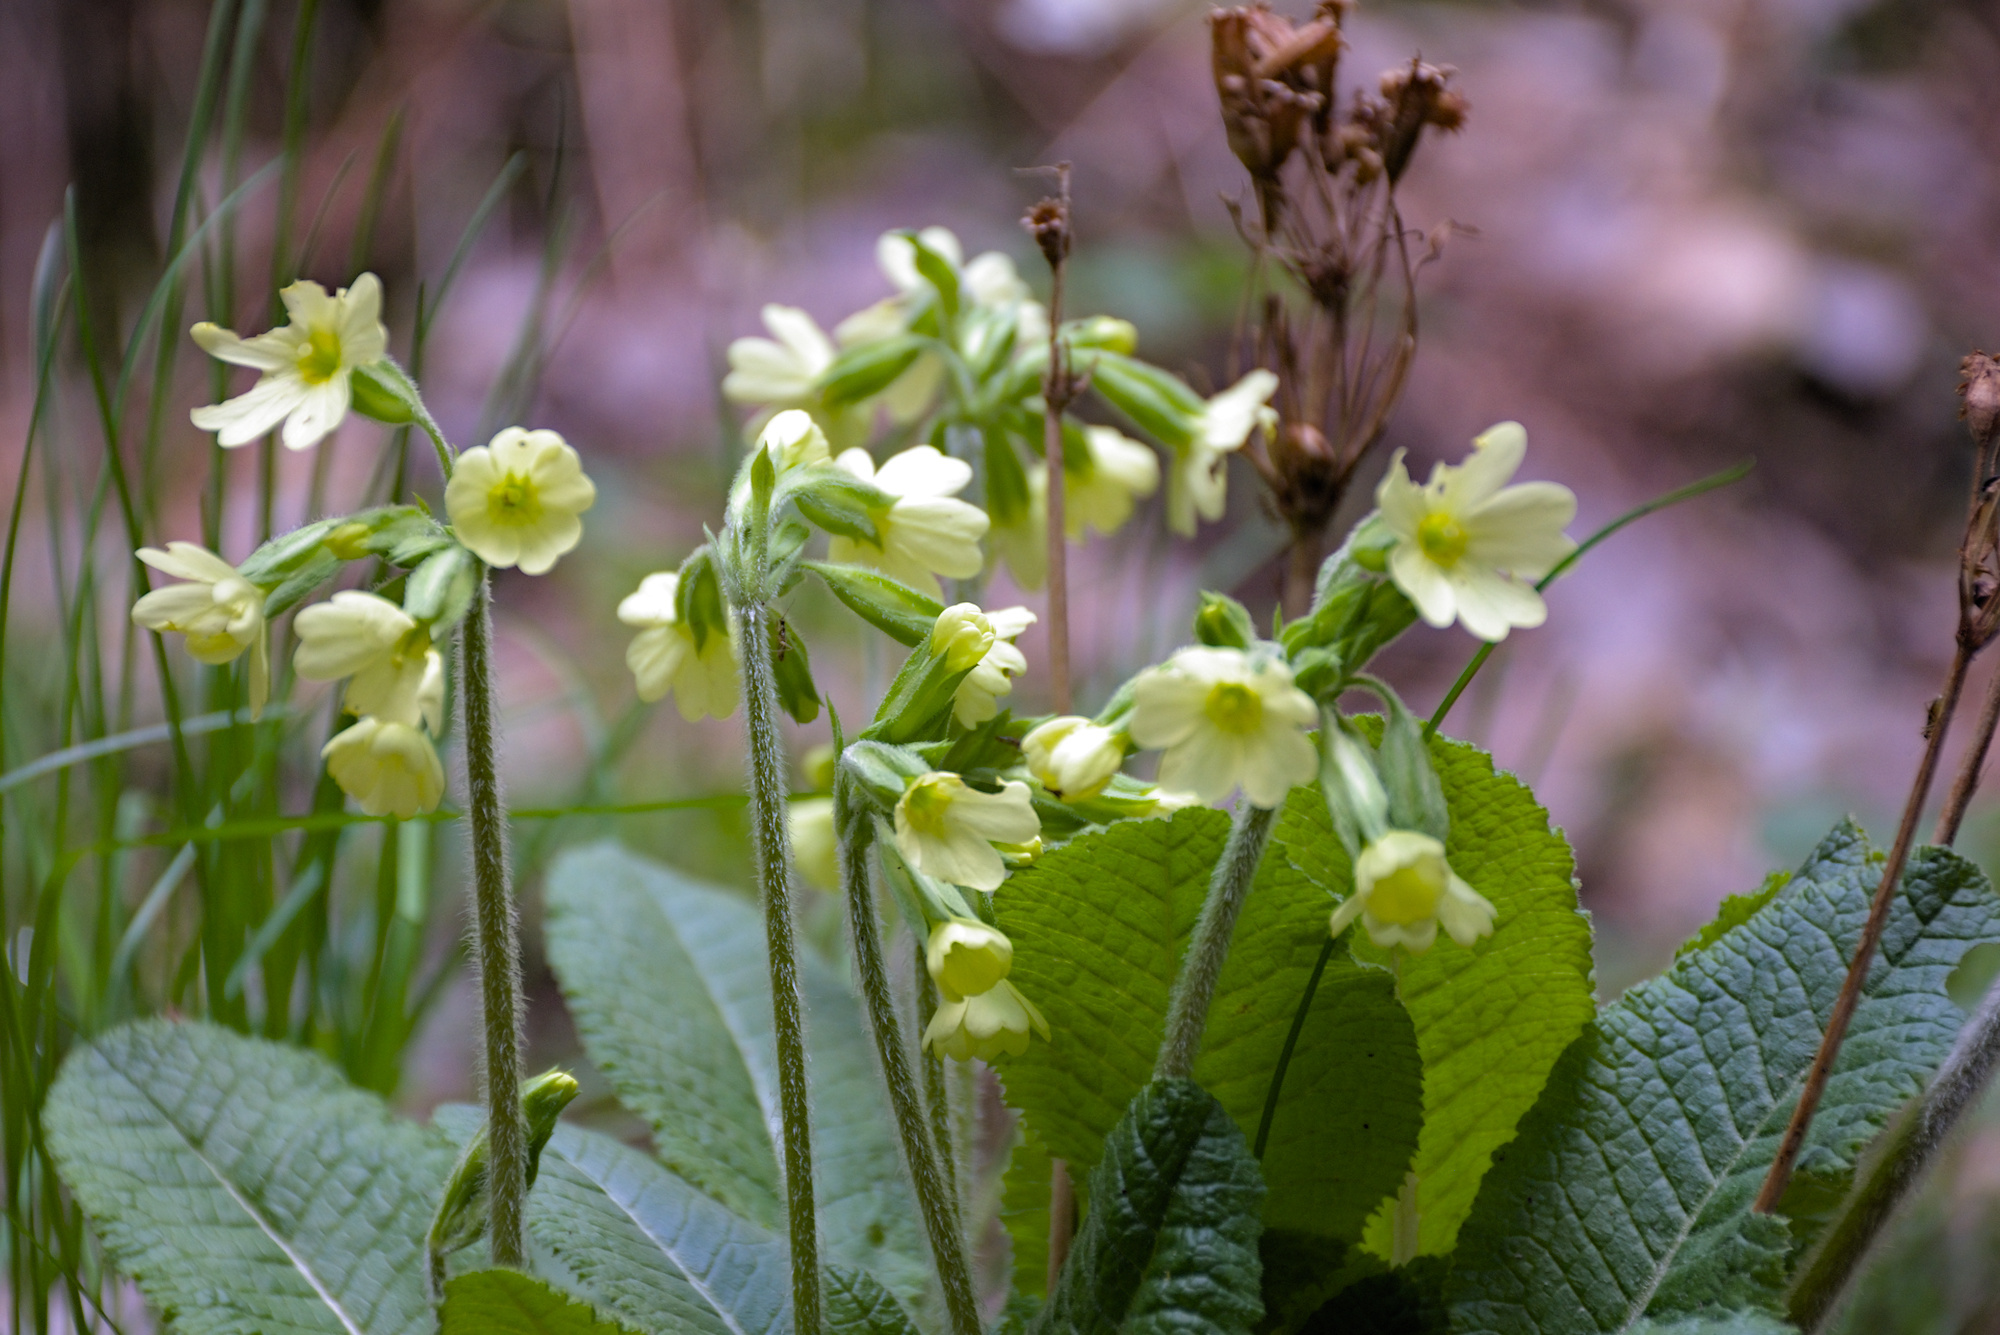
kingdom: Plantae
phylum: Tracheophyta
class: Magnoliopsida
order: Ericales
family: Primulaceae
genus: Primula
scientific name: Primula vulgaris
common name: Primrose
